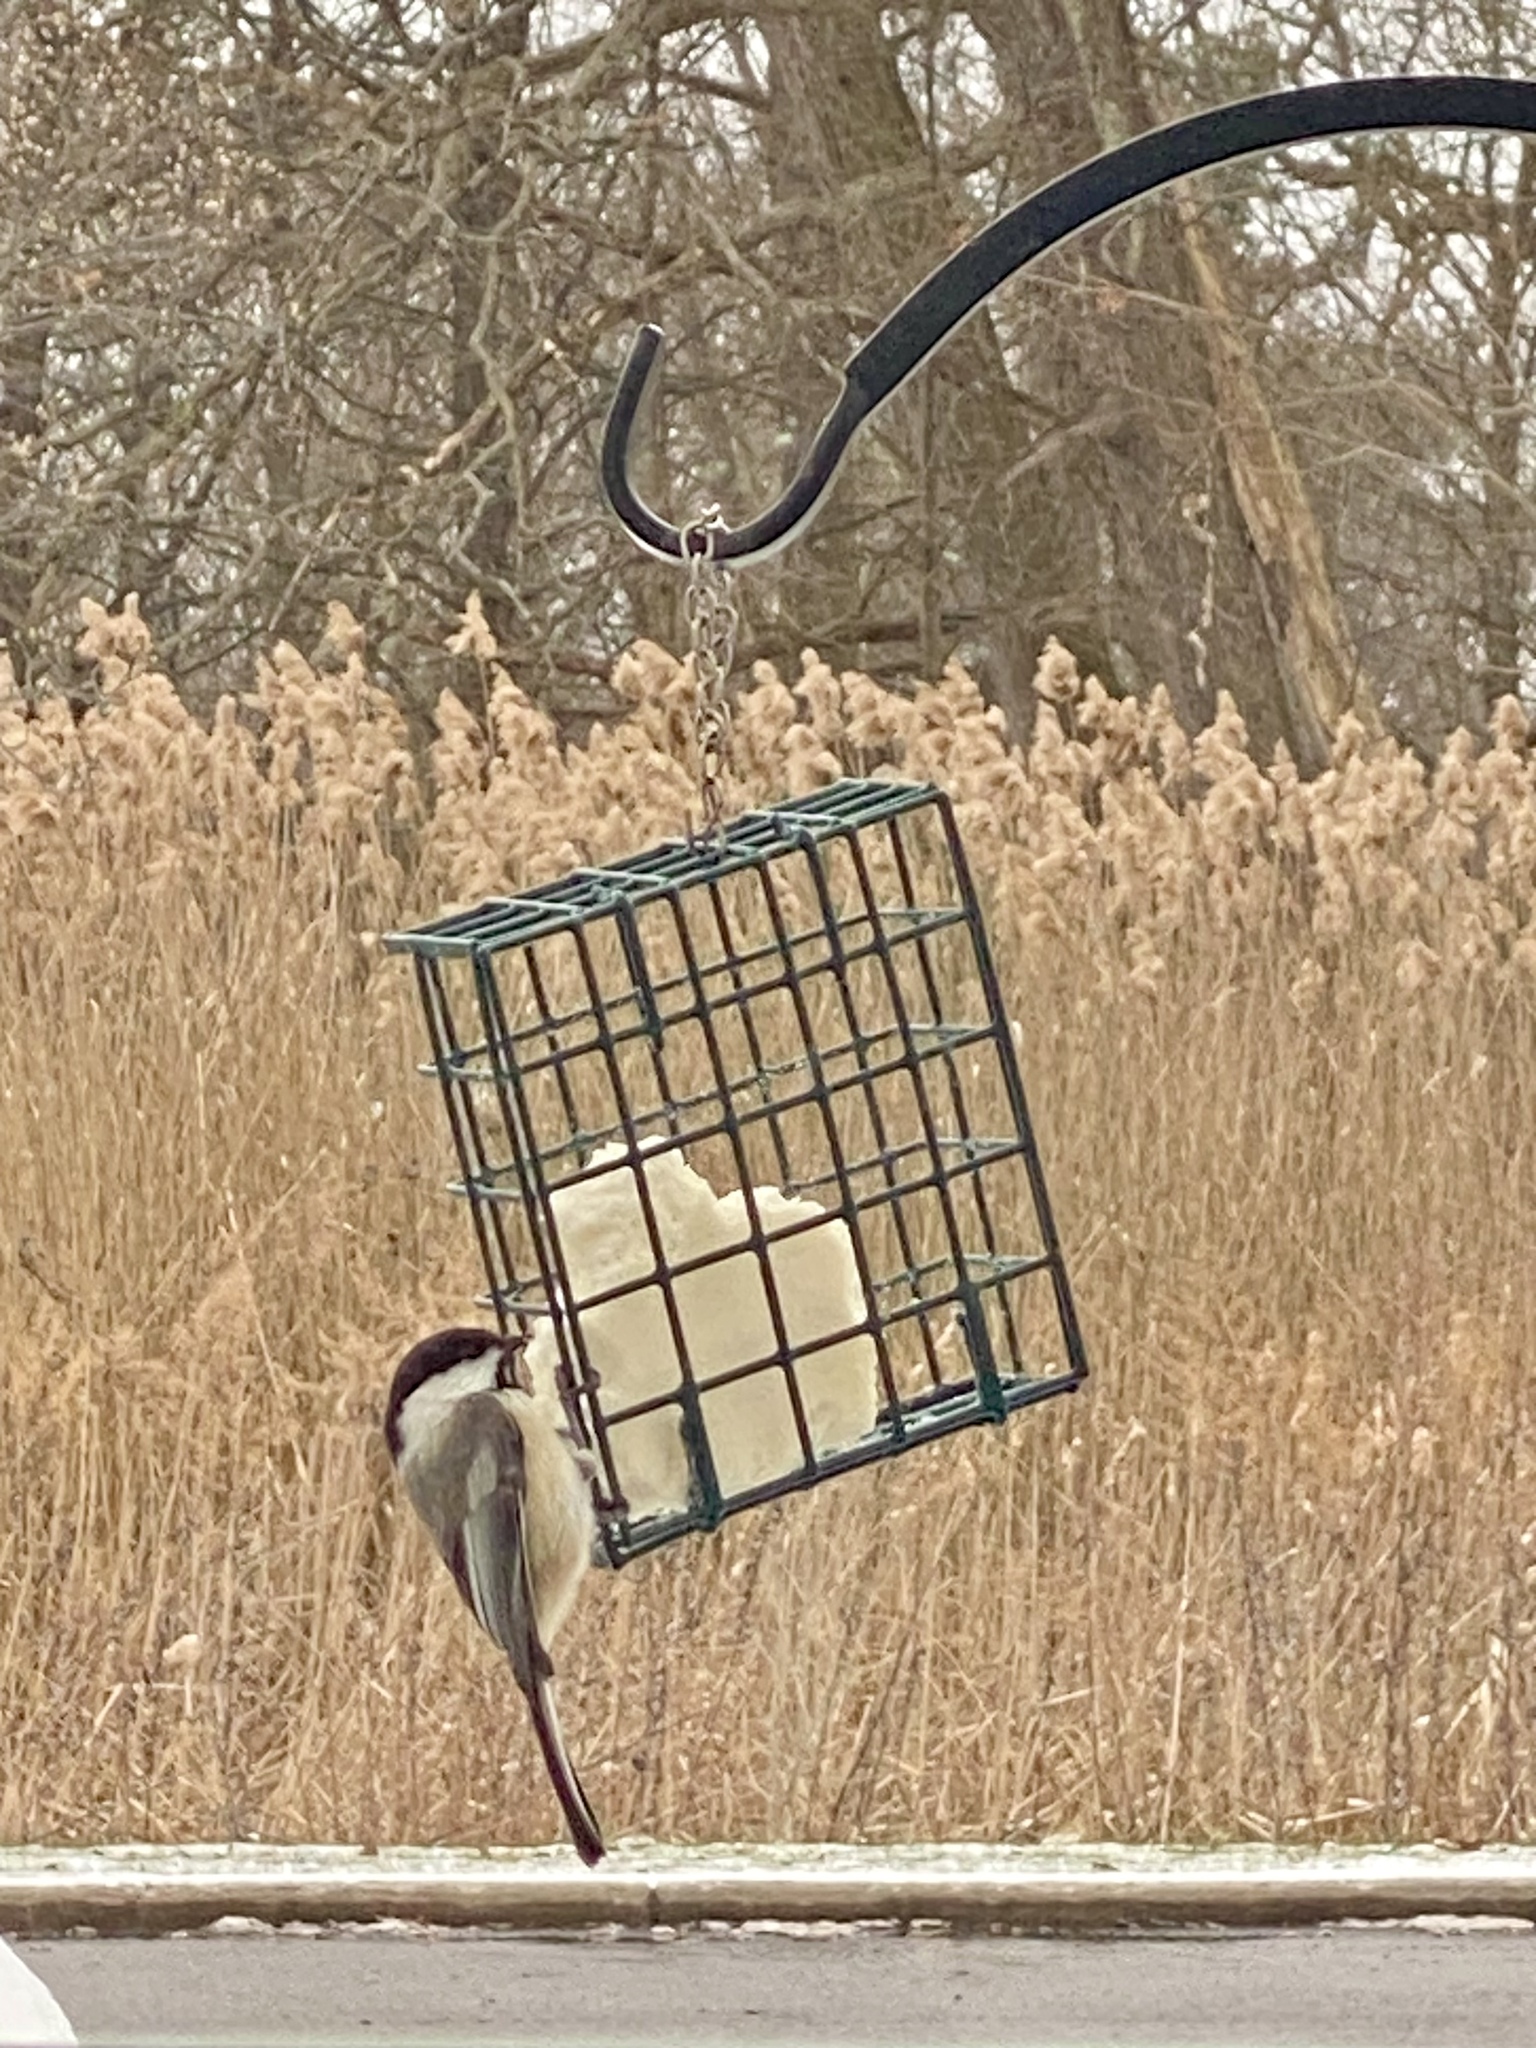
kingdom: Animalia
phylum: Chordata
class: Aves
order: Passeriformes
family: Paridae
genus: Poecile
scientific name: Poecile atricapillus
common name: Black-capped chickadee
